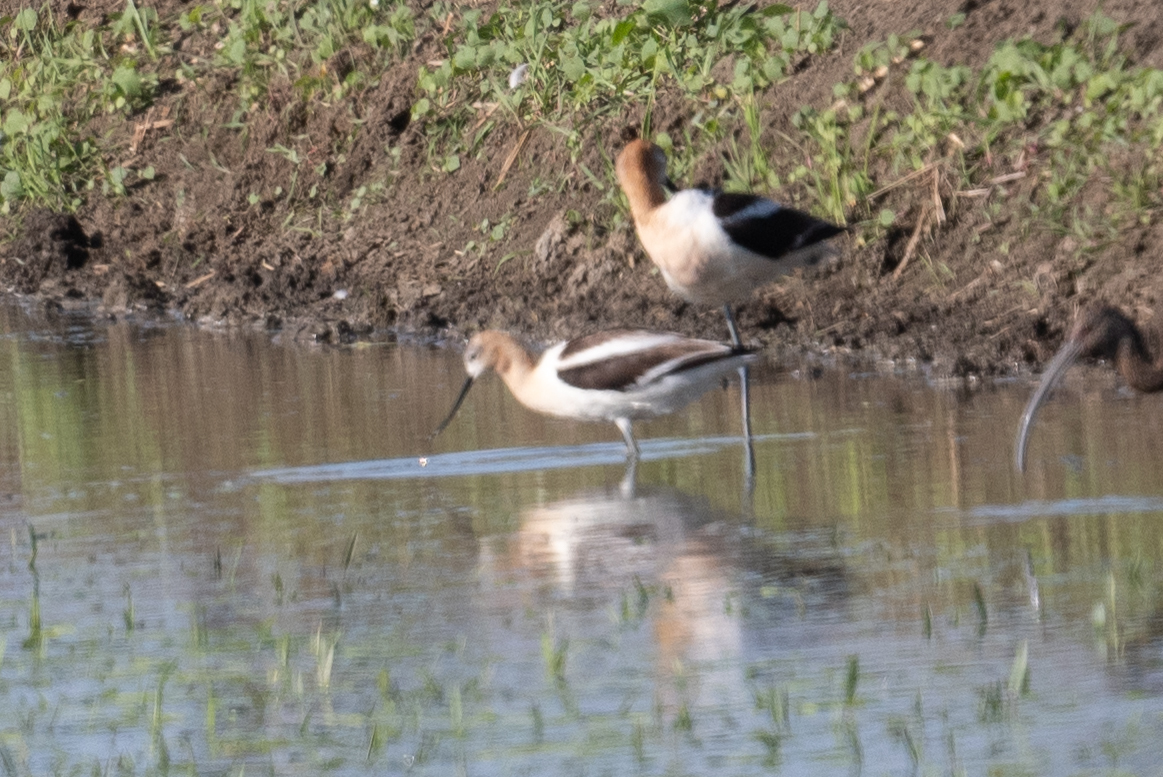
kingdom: Animalia
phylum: Chordata
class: Aves
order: Charadriiformes
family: Recurvirostridae
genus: Recurvirostra
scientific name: Recurvirostra americana
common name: American avocet
